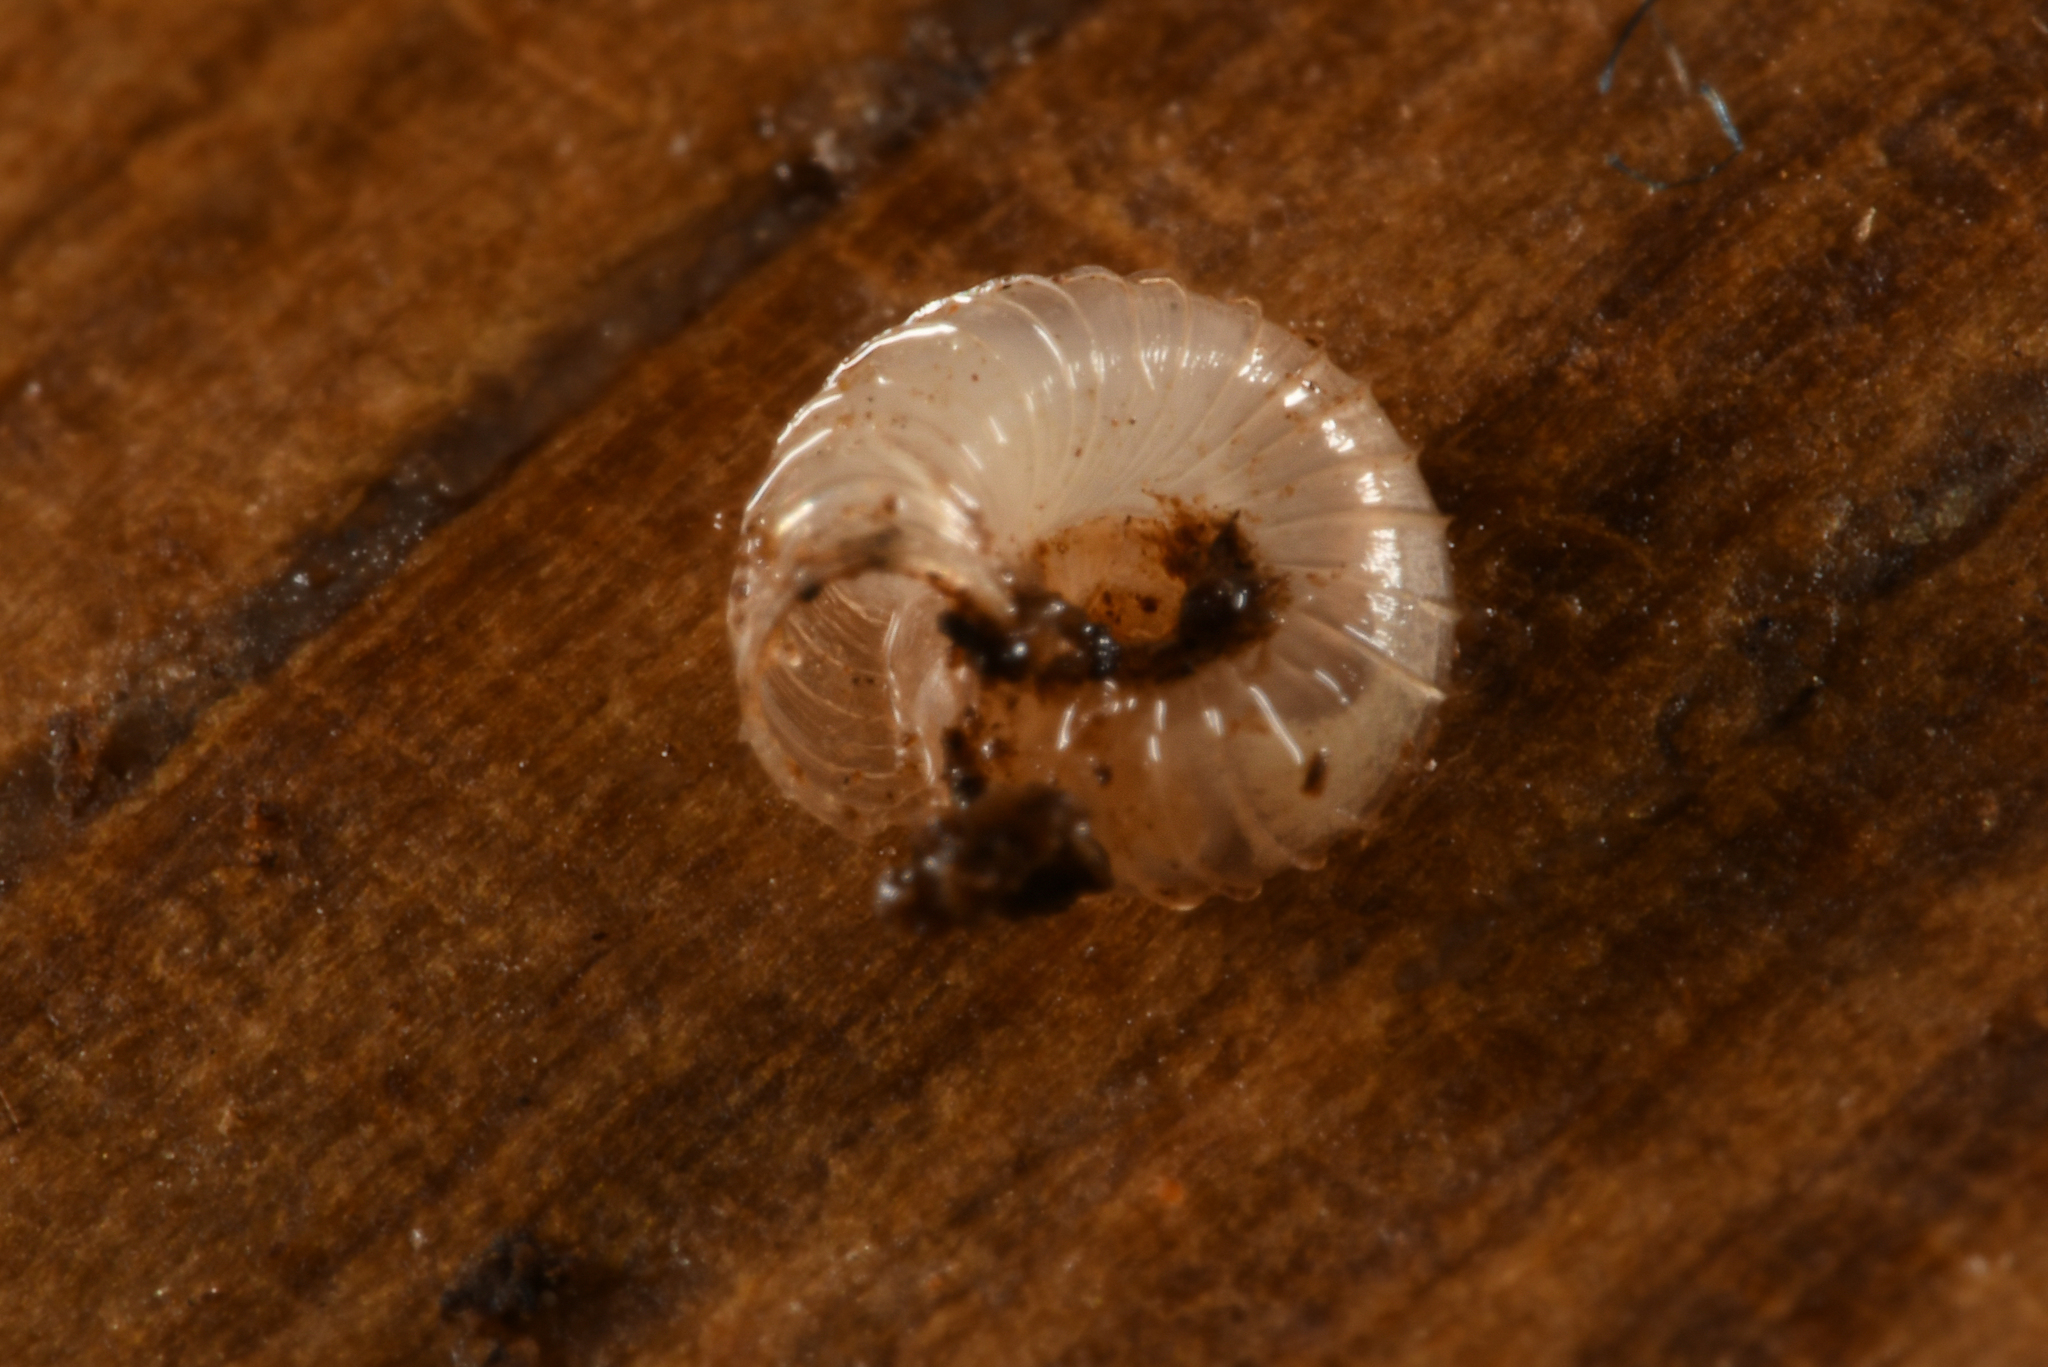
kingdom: Animalia
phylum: Mollusca
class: Gastropoda
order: Stylommatophora
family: Valloniidae
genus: Vallonia
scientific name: Vallonia costata
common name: Ribbed grass snail
